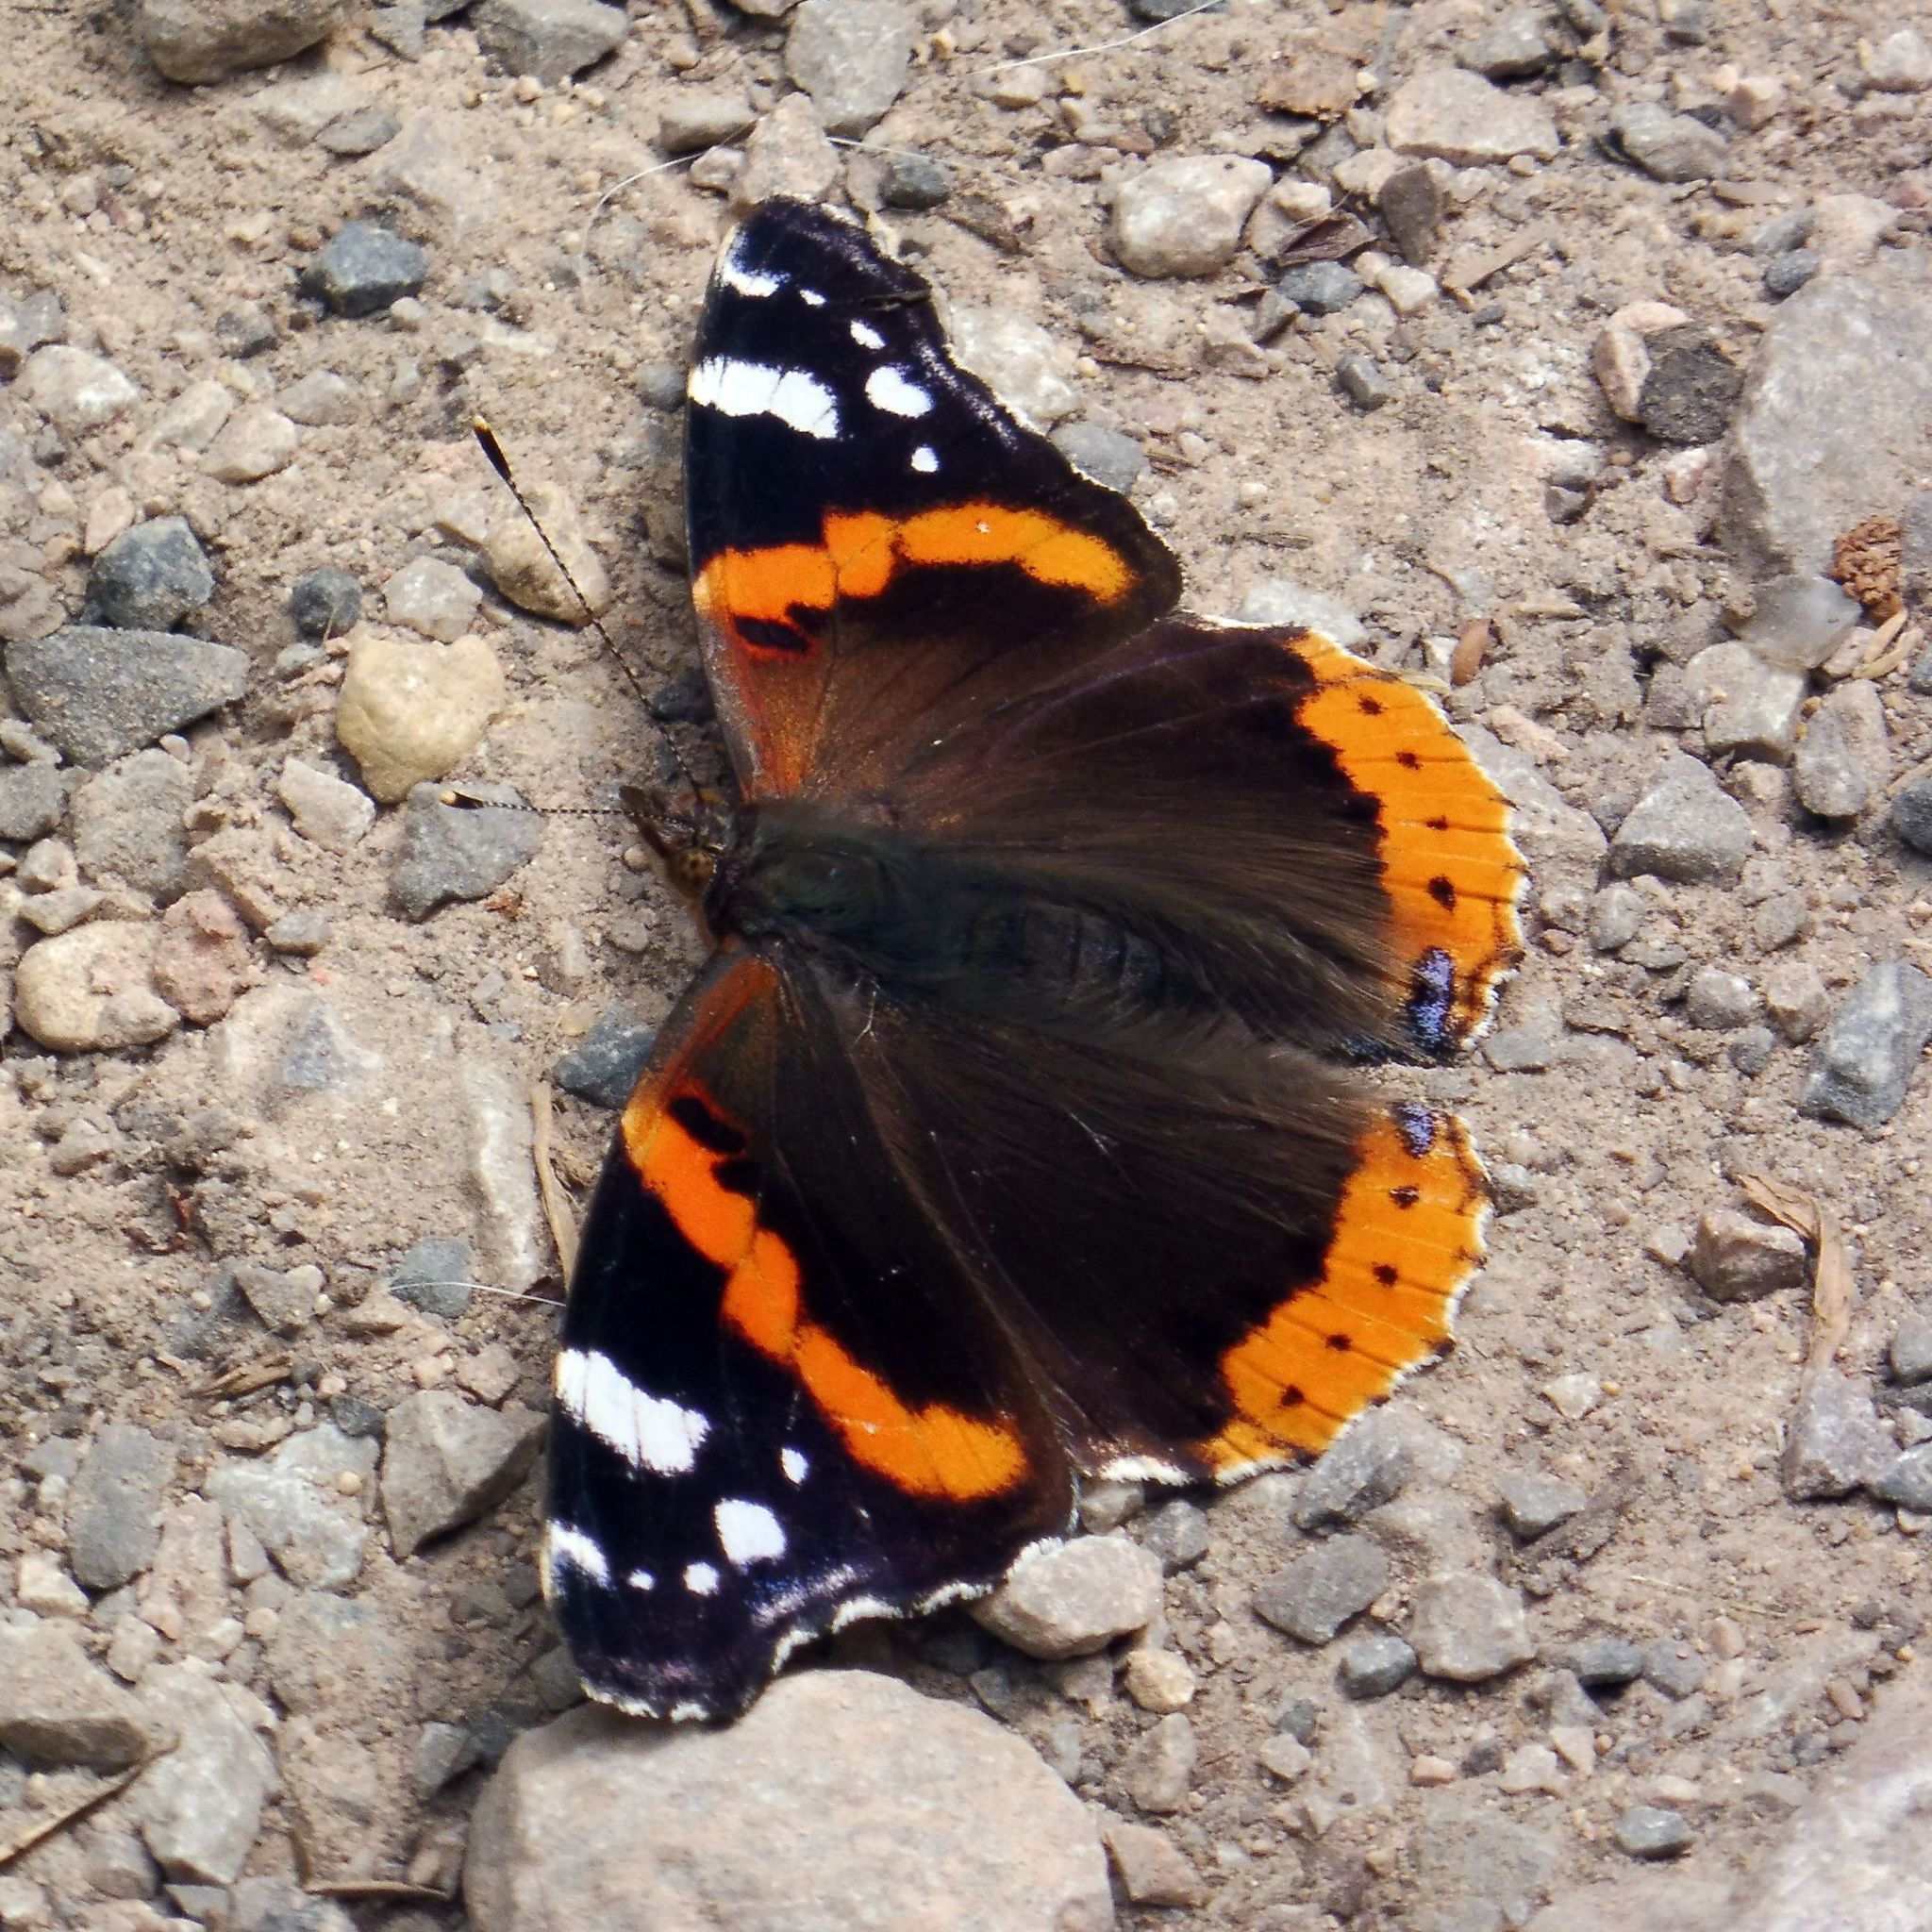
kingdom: Animalia
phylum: Arthropoda
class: Insecta
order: Lepidoptera
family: Nymphalidae
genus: Vanessa
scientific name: Vanessa atalanta
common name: Red admiral
